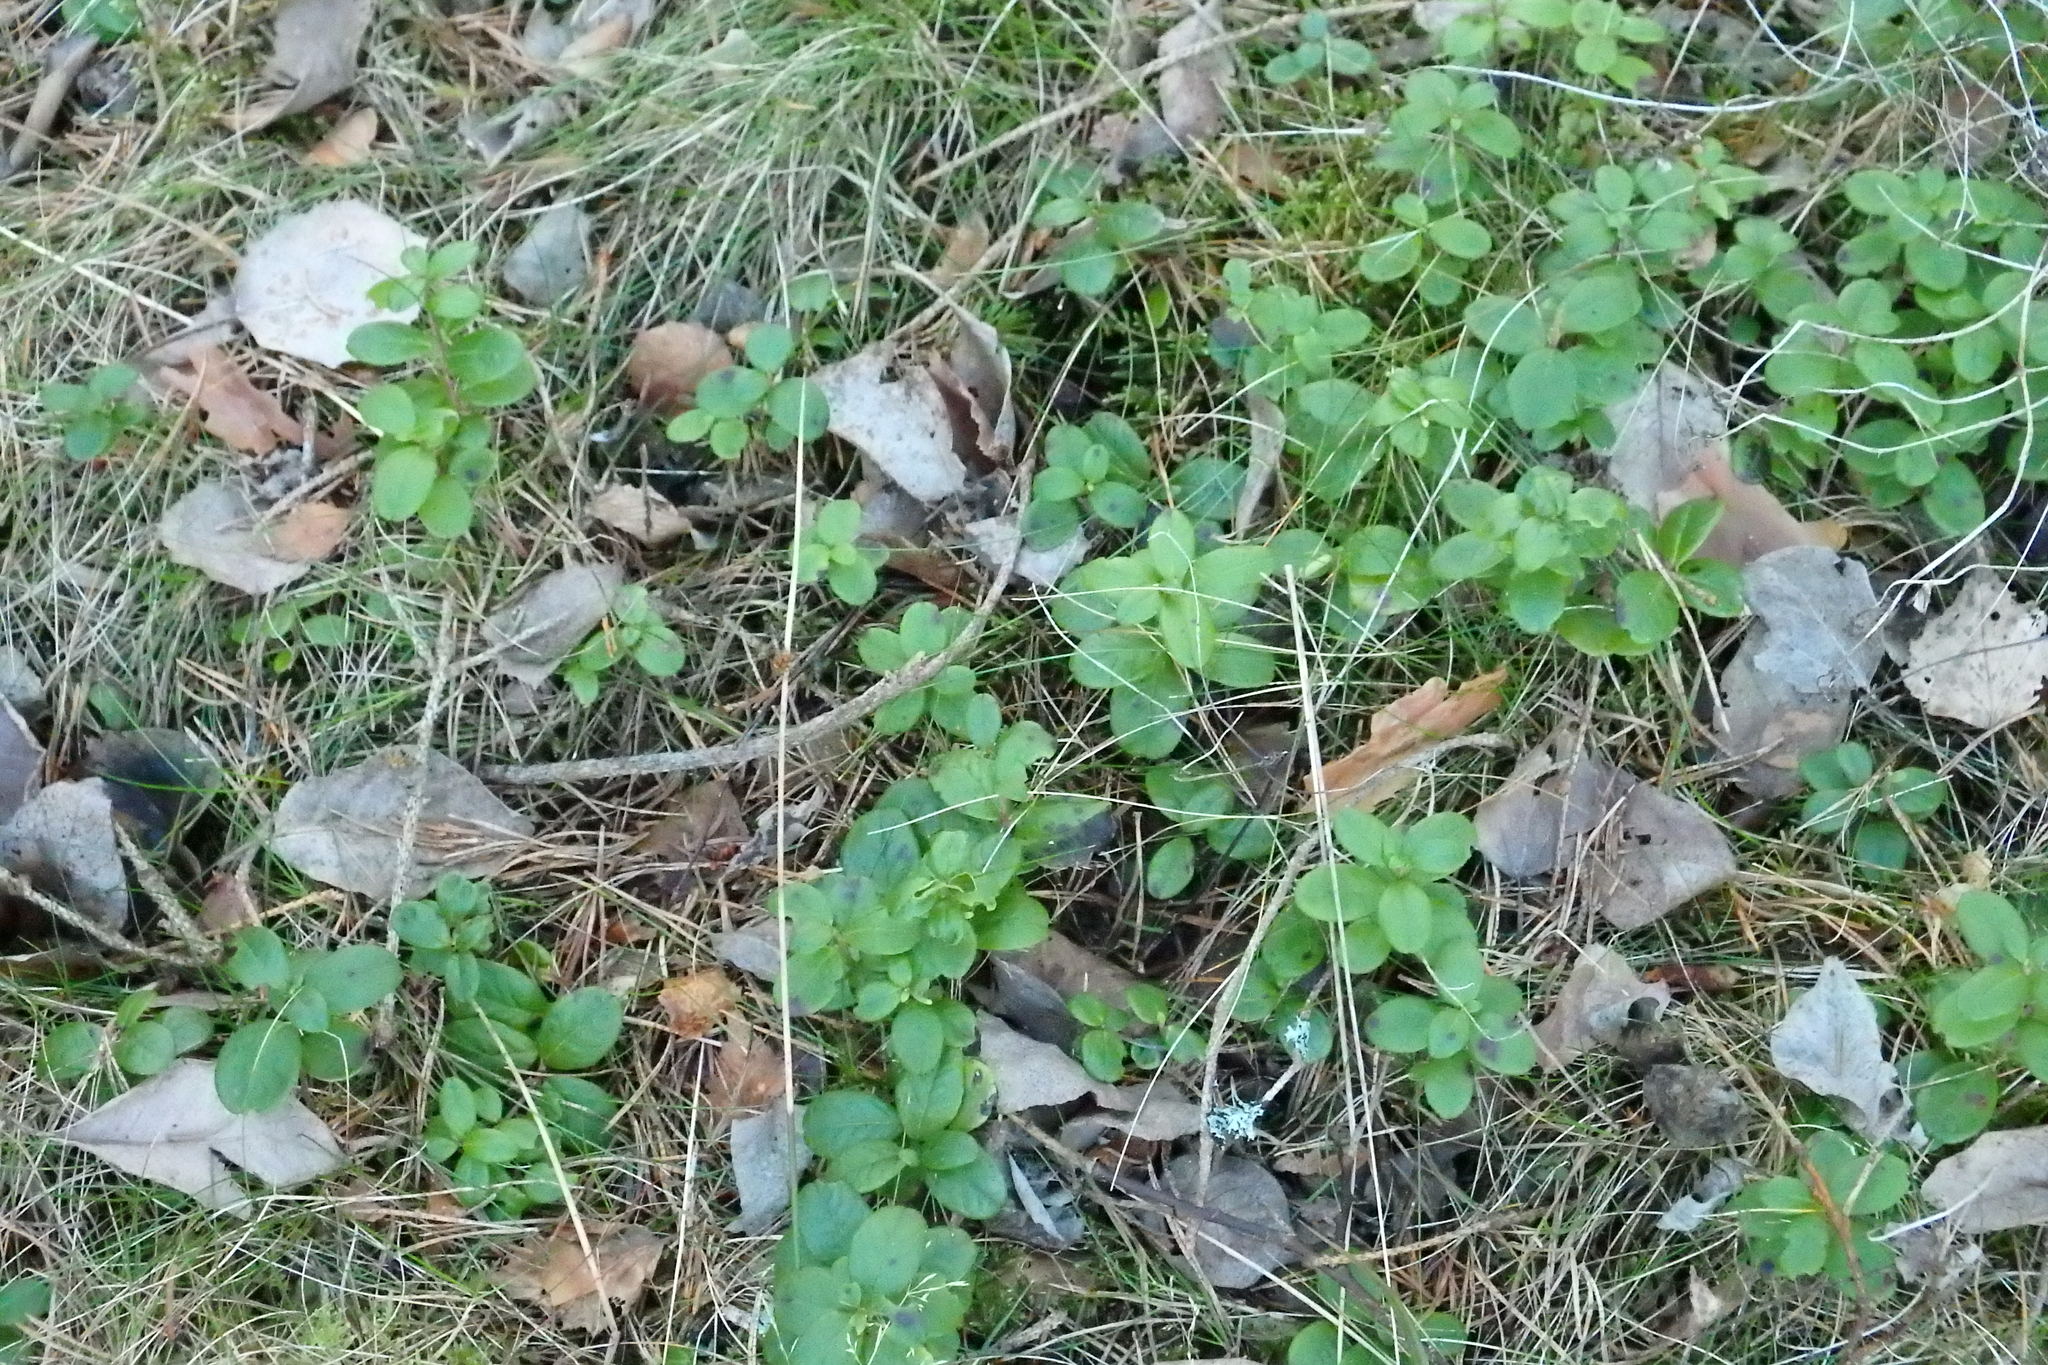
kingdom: Plantae
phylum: Tracheophyta
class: Magnoliopsida
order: Ericales
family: Ericaceae
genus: Vaccinium
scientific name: Vaccinium vitis-idaea
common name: Cowberry
